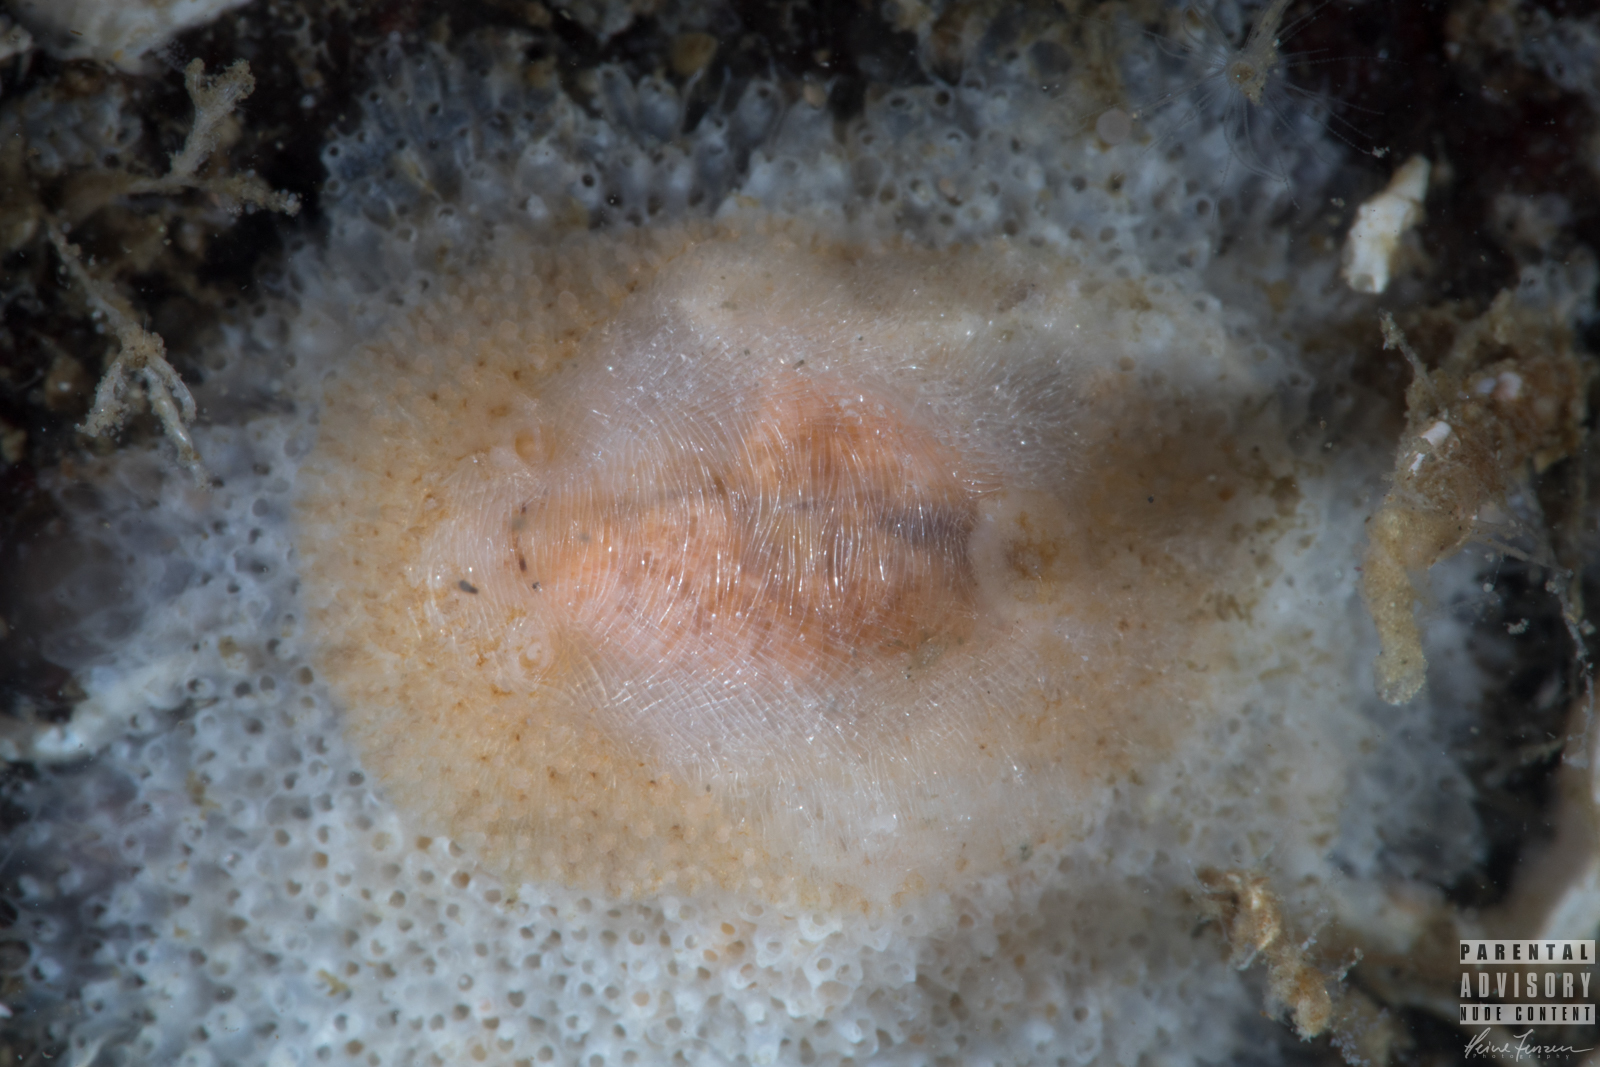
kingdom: Animalia
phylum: Mollusca
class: Gastropoda
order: Nudibranchia
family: Onchidorididae
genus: Idaliadoris
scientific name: Idaliadoris depressa
